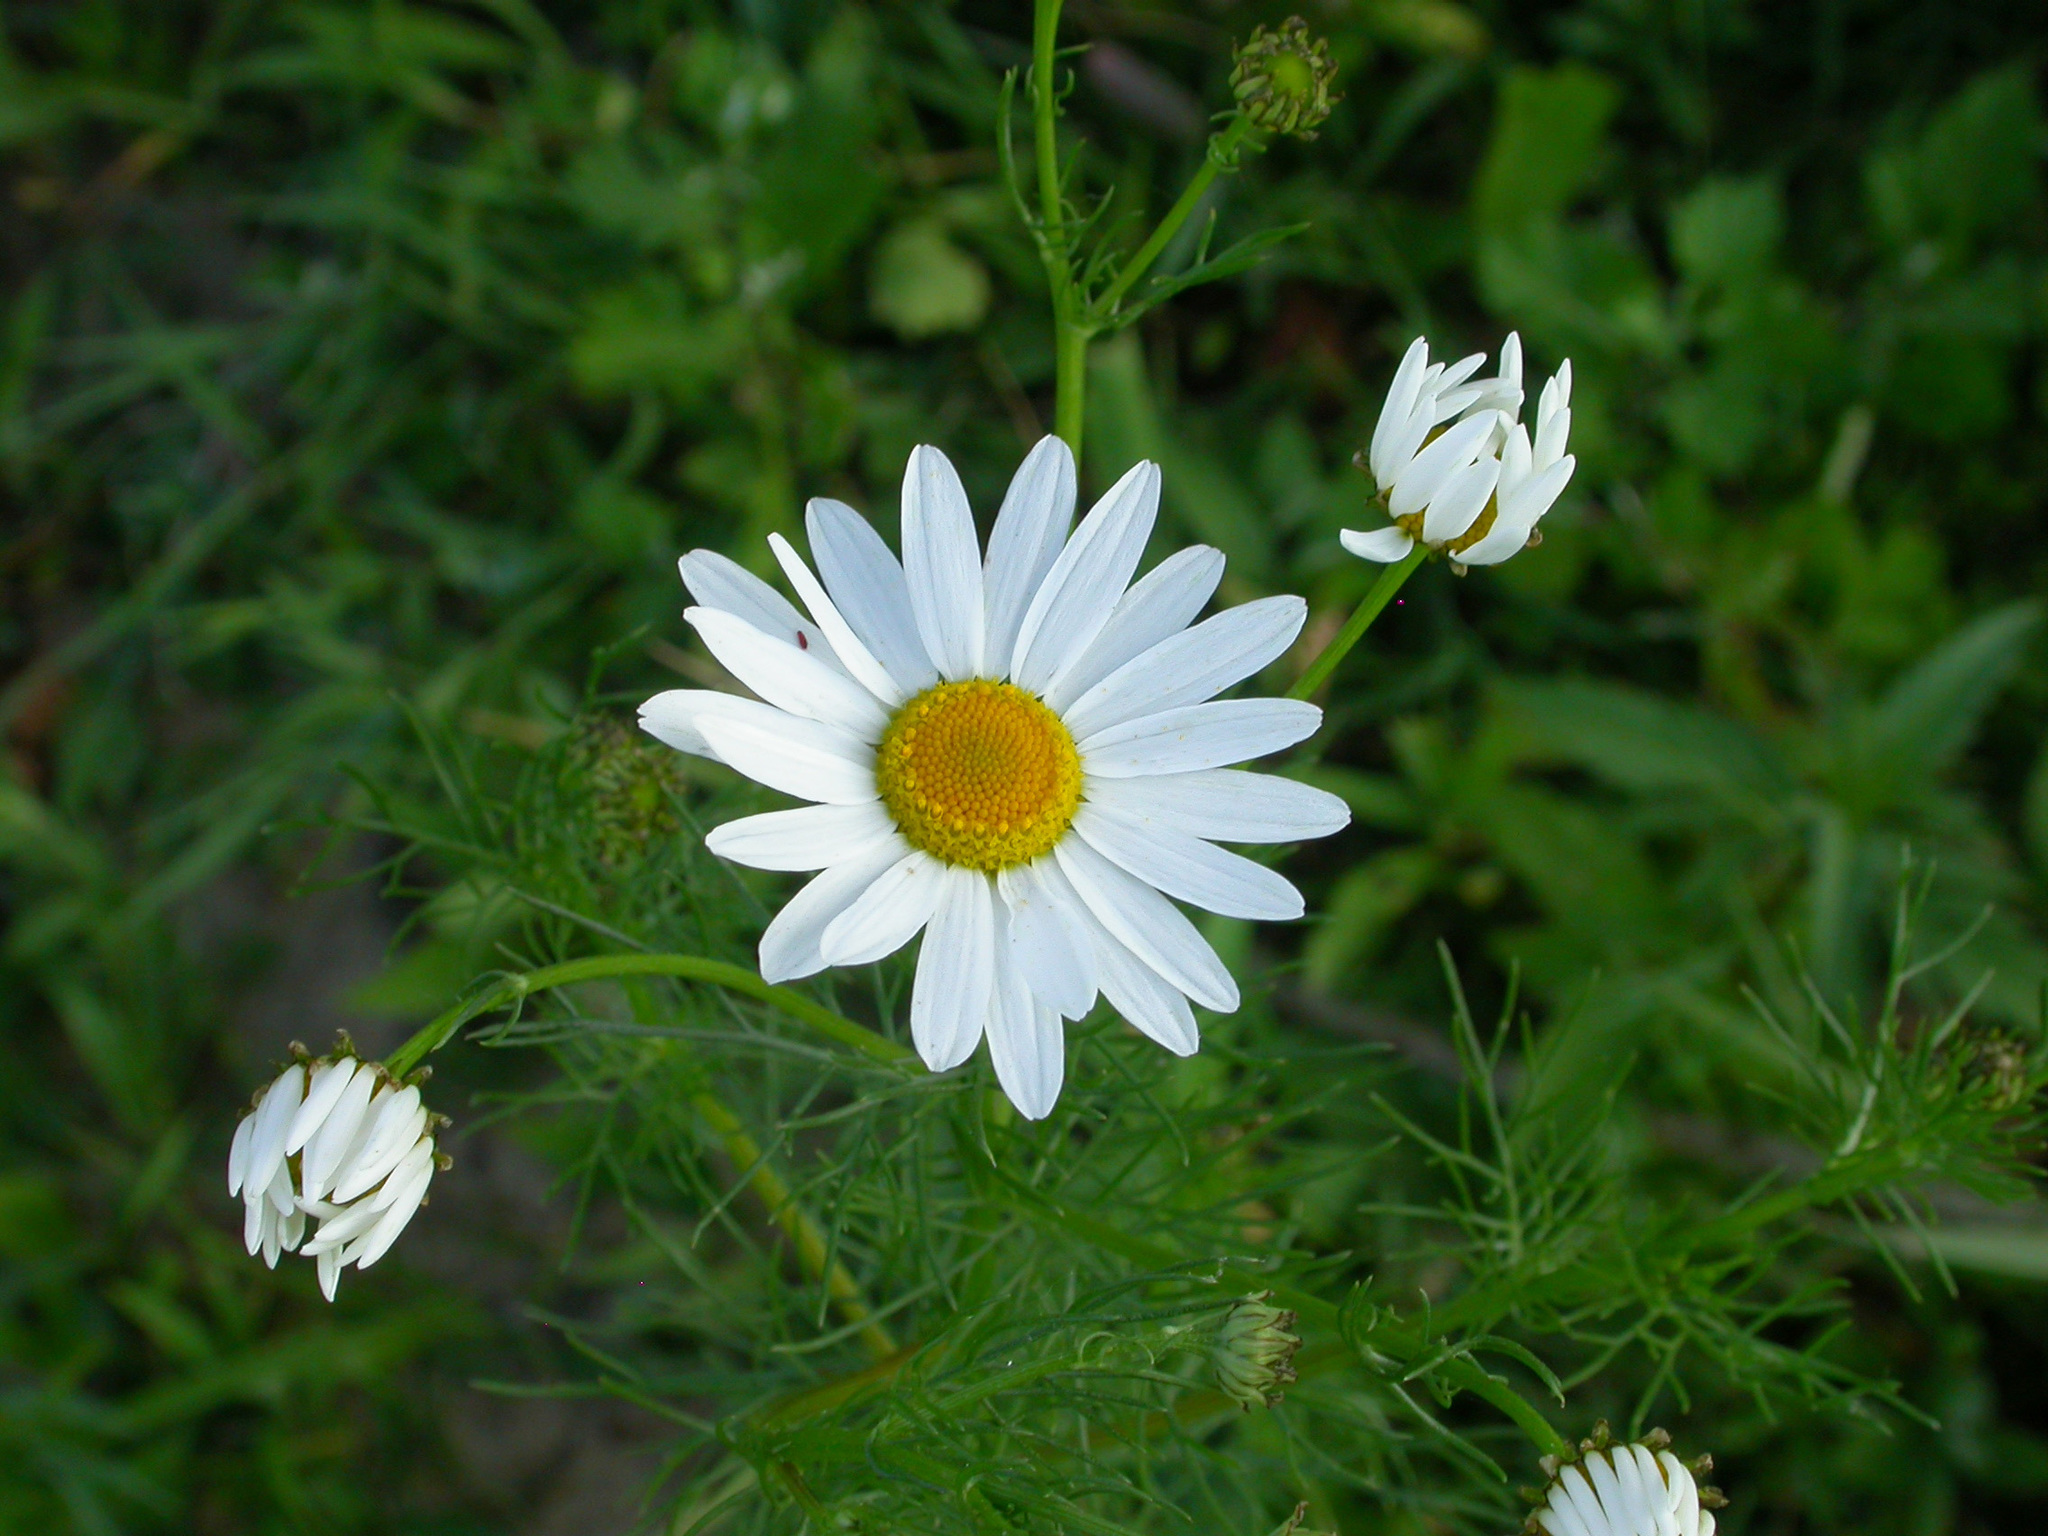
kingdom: Plantae
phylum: Tracheophyta
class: Magnoliopsida
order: Asterales
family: Asteraceae
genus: Tripleurospermum
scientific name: Tripleurospermum inodorum
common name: Scentless mayweed
